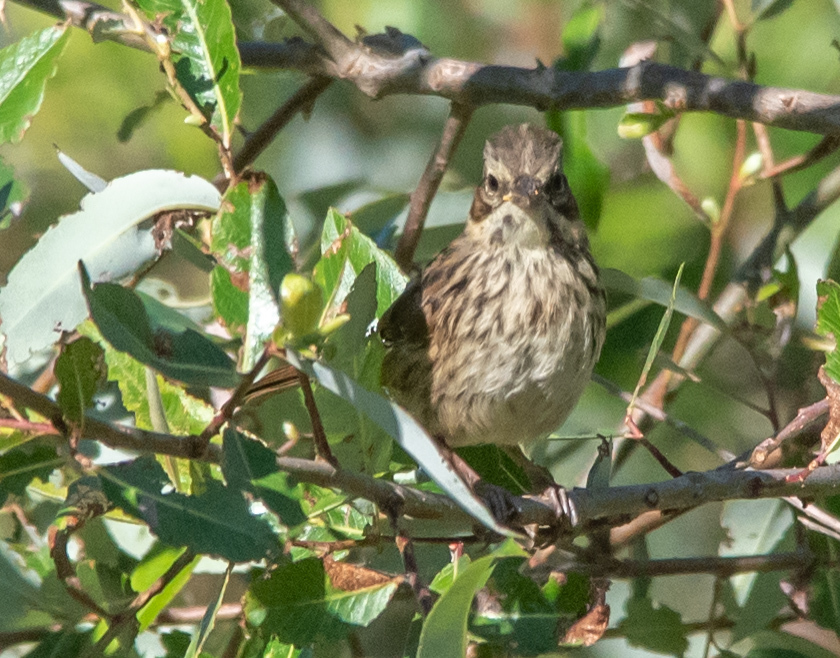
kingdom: Animalia
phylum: Chordata
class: Aves
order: Passeriformes
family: Passerellidae
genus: Melospiza
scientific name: Melospiza lincolnii
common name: Lincoln's sparrow
